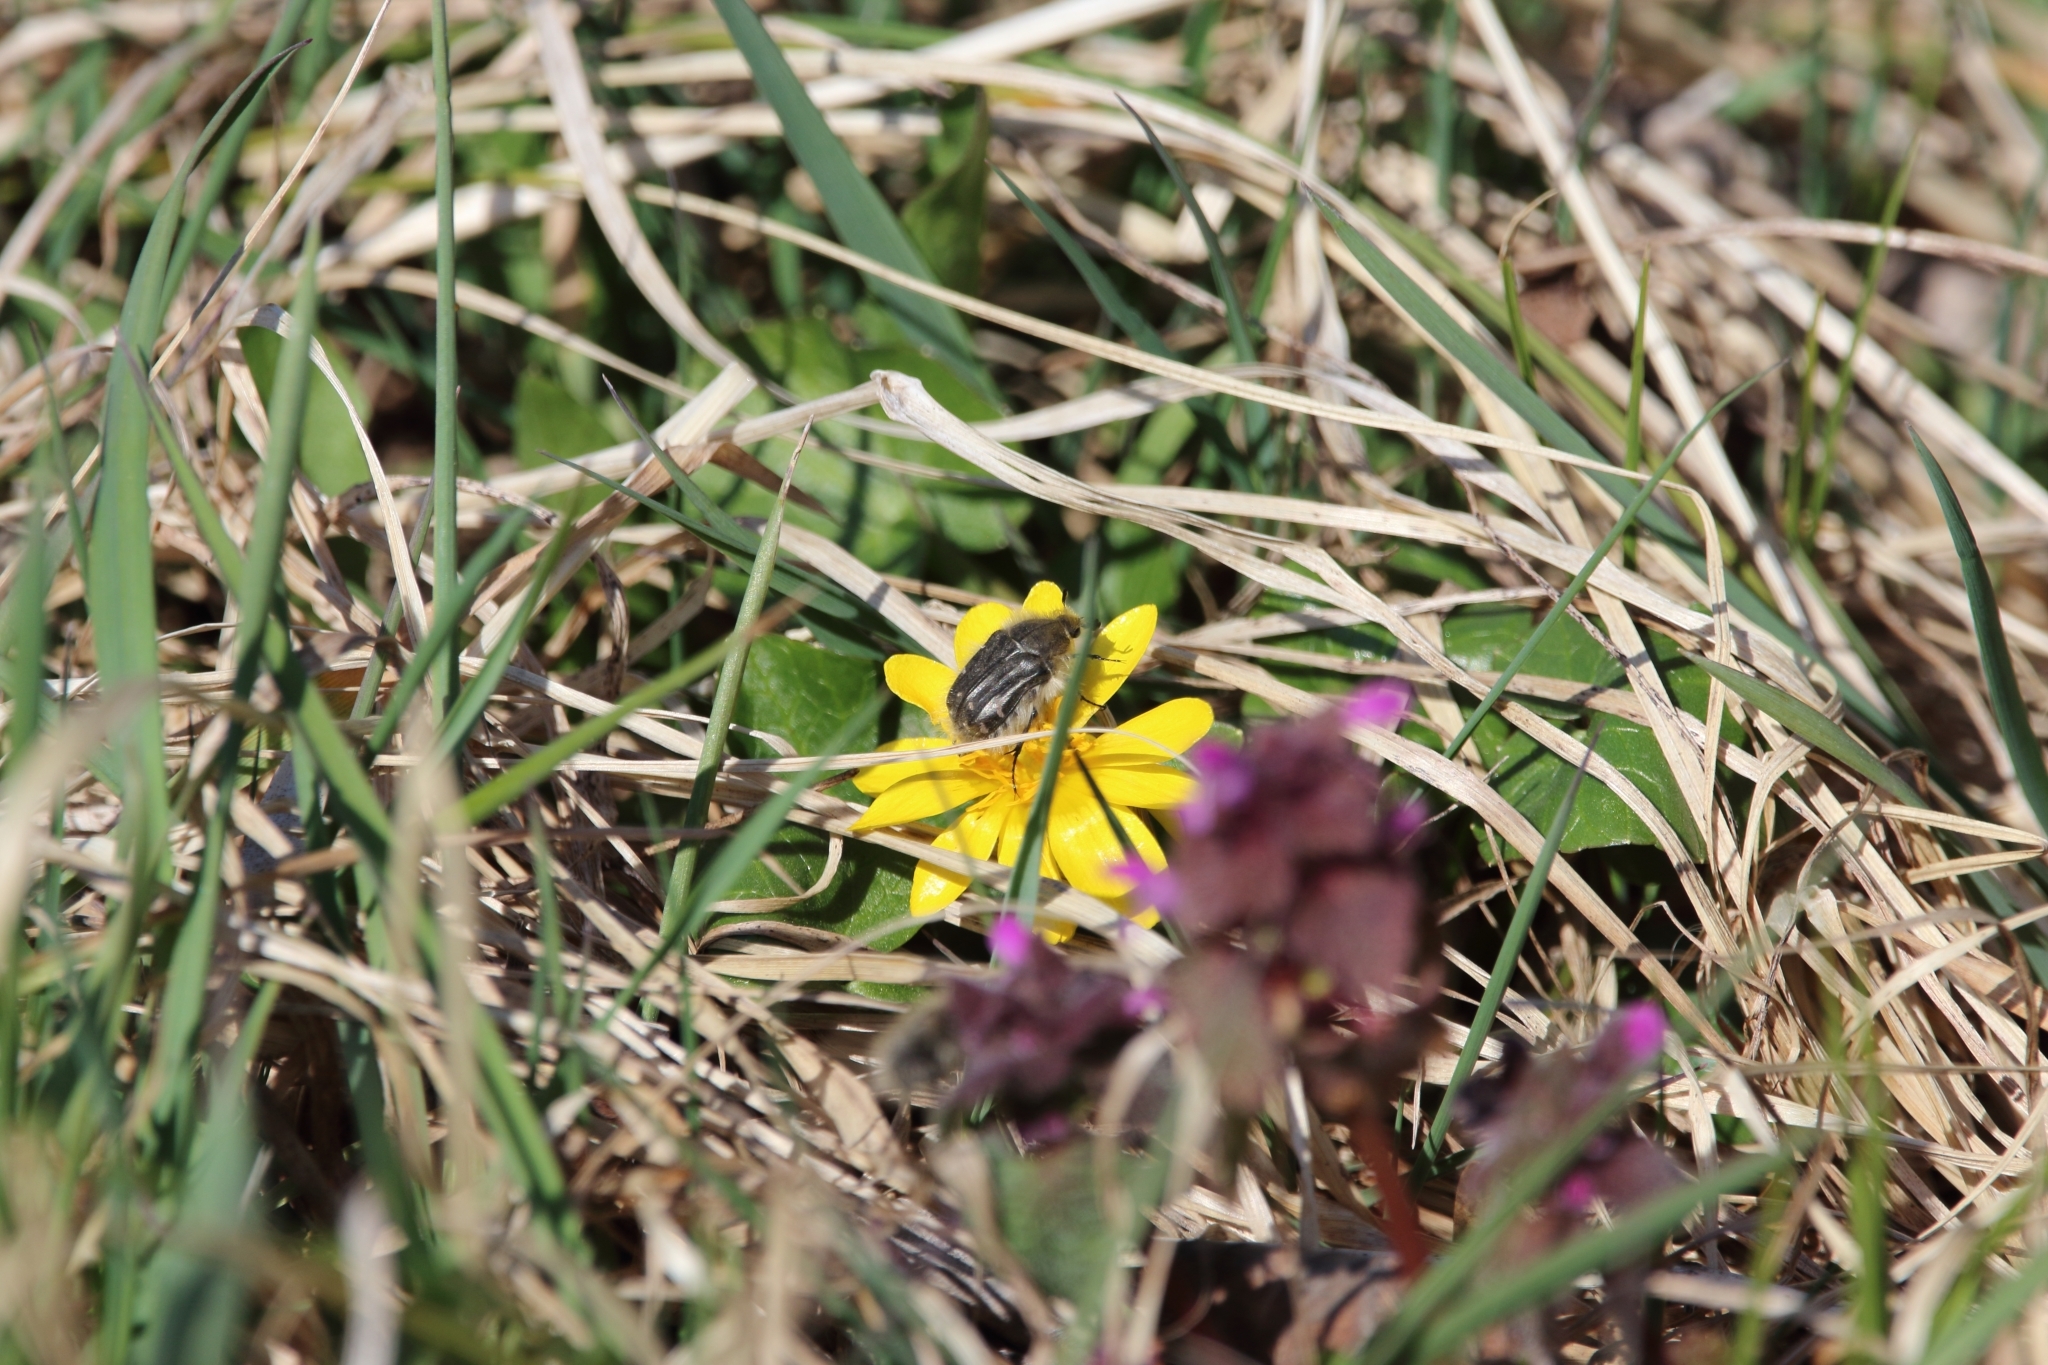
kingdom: Animalia
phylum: Arthropoda
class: Insecta
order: Coleoptera
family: Scarabaeidae
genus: Tropinota
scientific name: Tropinota hirta
